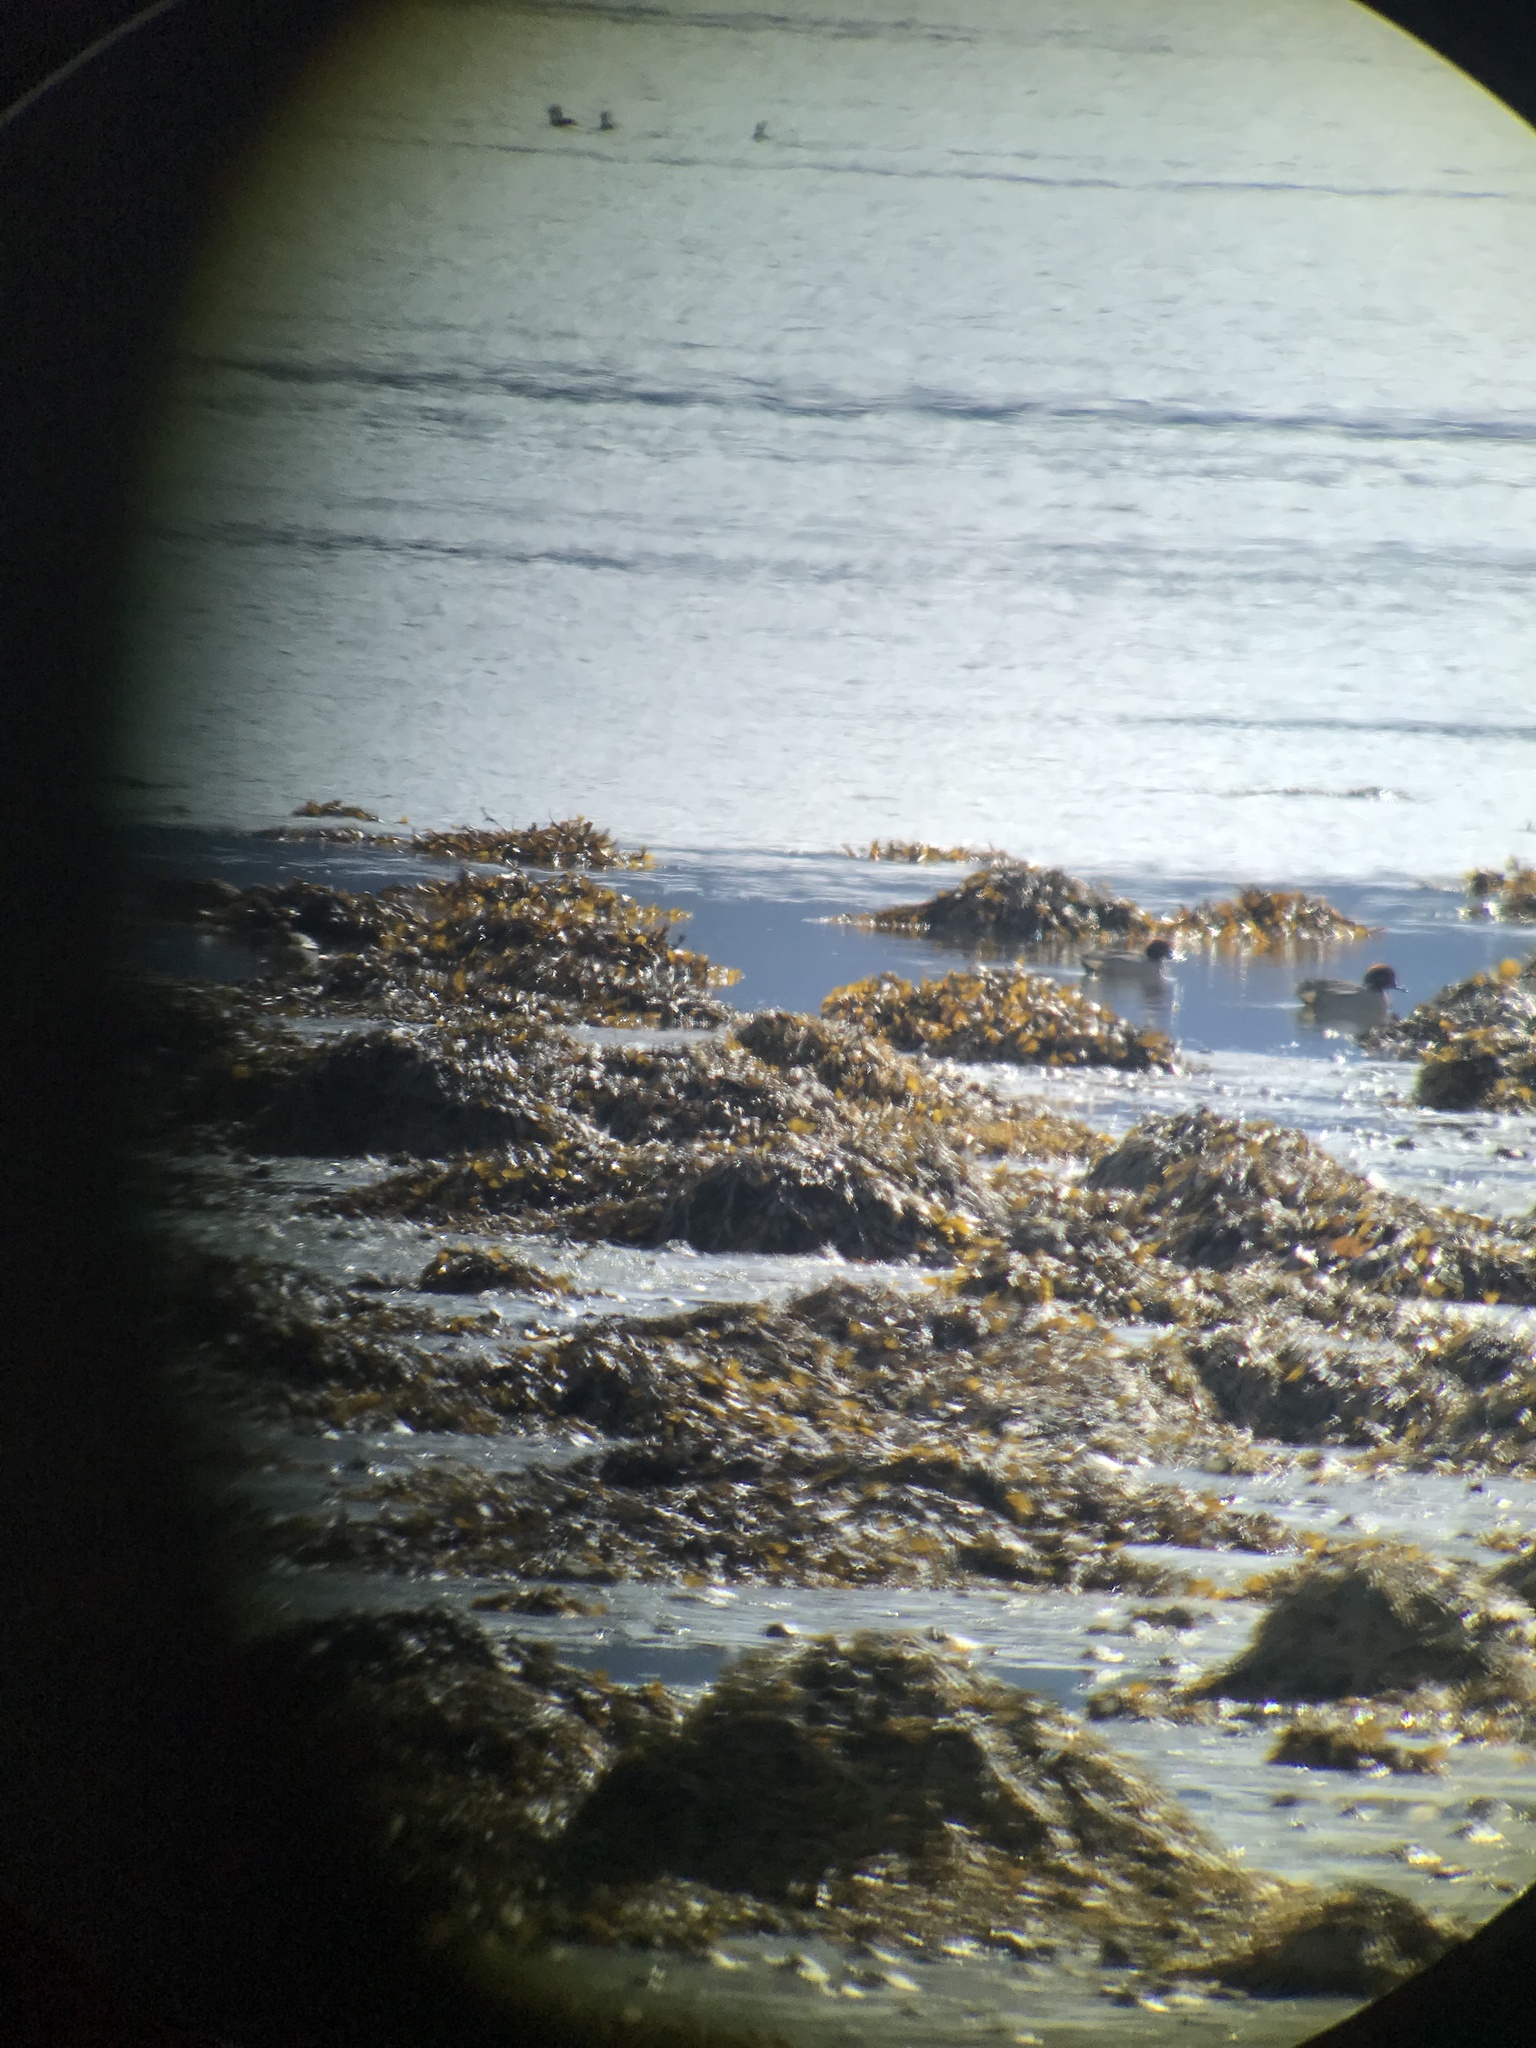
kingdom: Animalia
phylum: Chordata
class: Aves
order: Anseriformes
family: Anatidae
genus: Anas
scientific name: Anas crecca
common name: Eurasian teal
